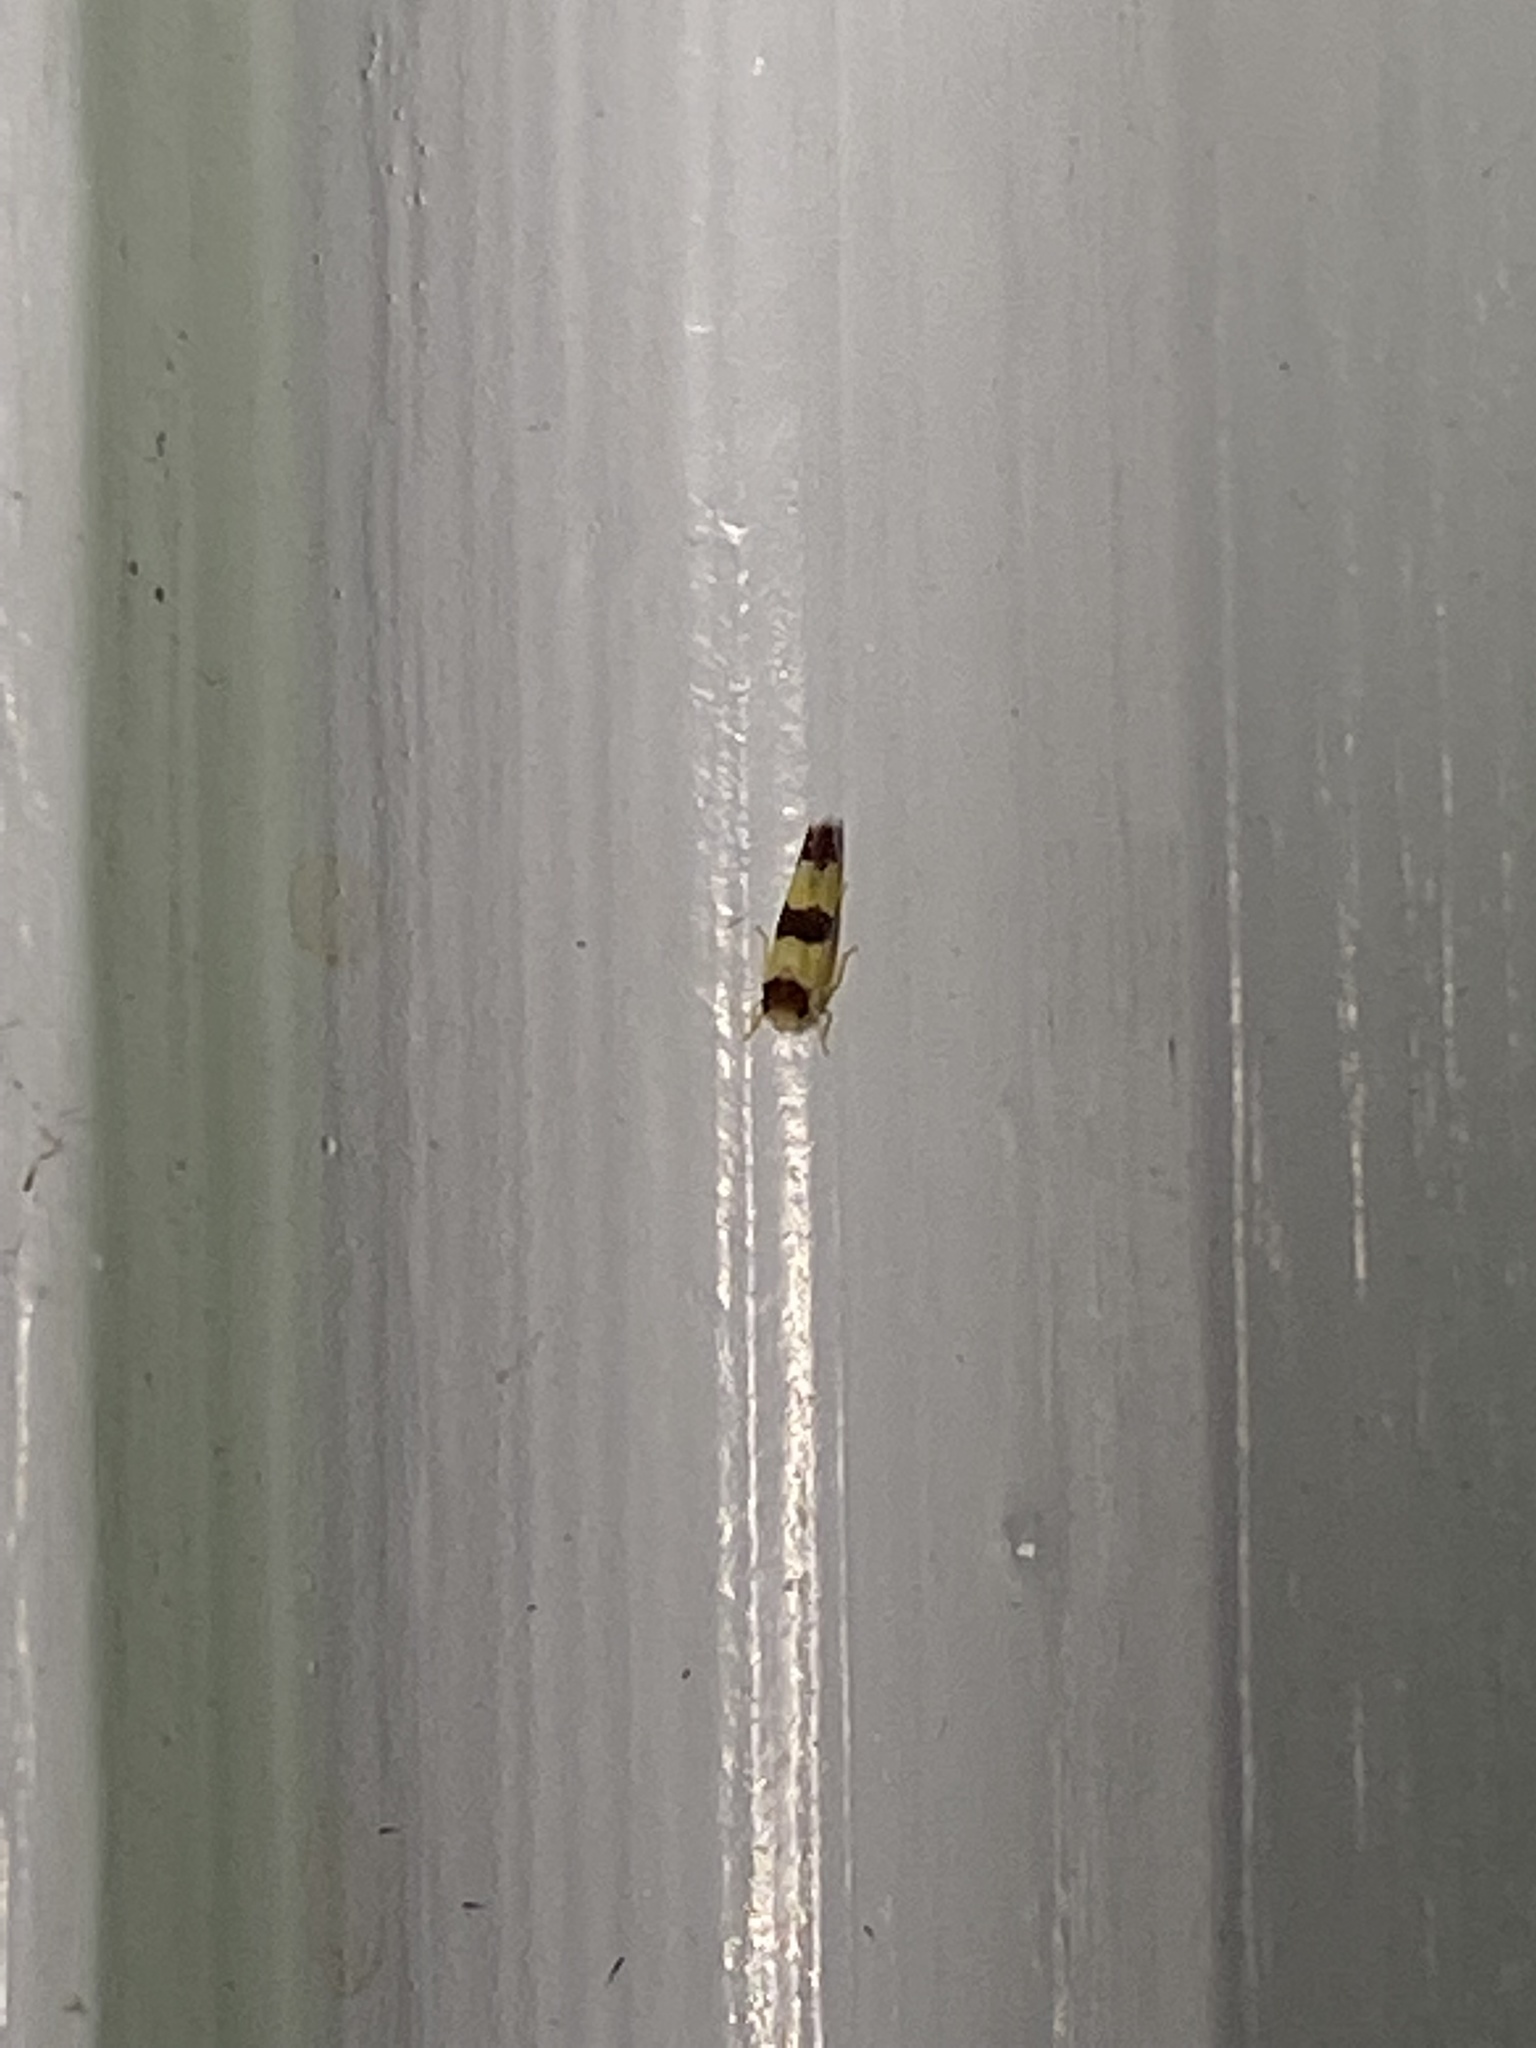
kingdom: Animalia
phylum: Arthropoda
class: Insecta
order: Hemiptera
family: Cicadellidae
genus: Erythroneura
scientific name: Erythroneura tricincta
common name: The threebanded grape leafhopper
